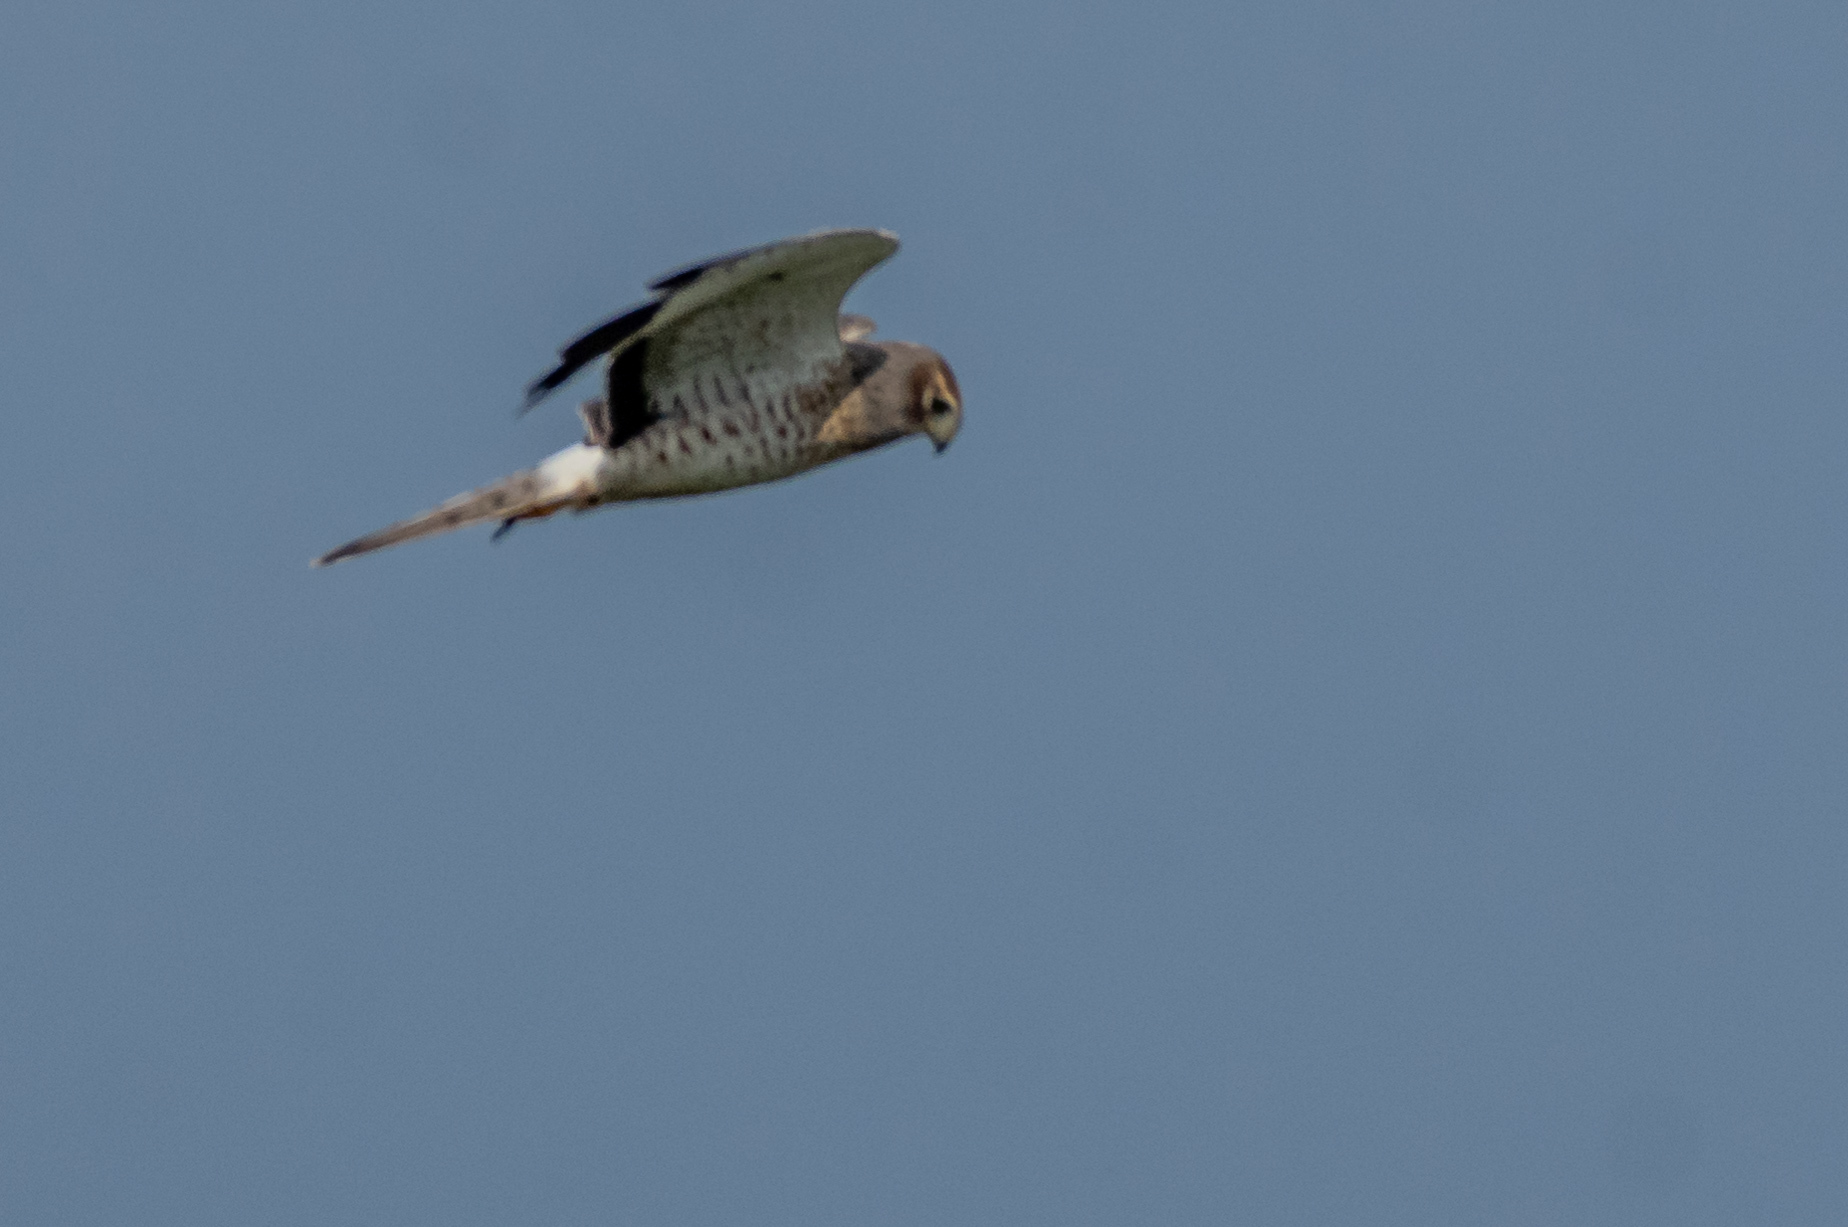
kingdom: Animalia
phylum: Chordata
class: Aves
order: Accipitriformes
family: Accipitridae
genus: Circus
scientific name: Circus cyaneus
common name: Hen harrier
